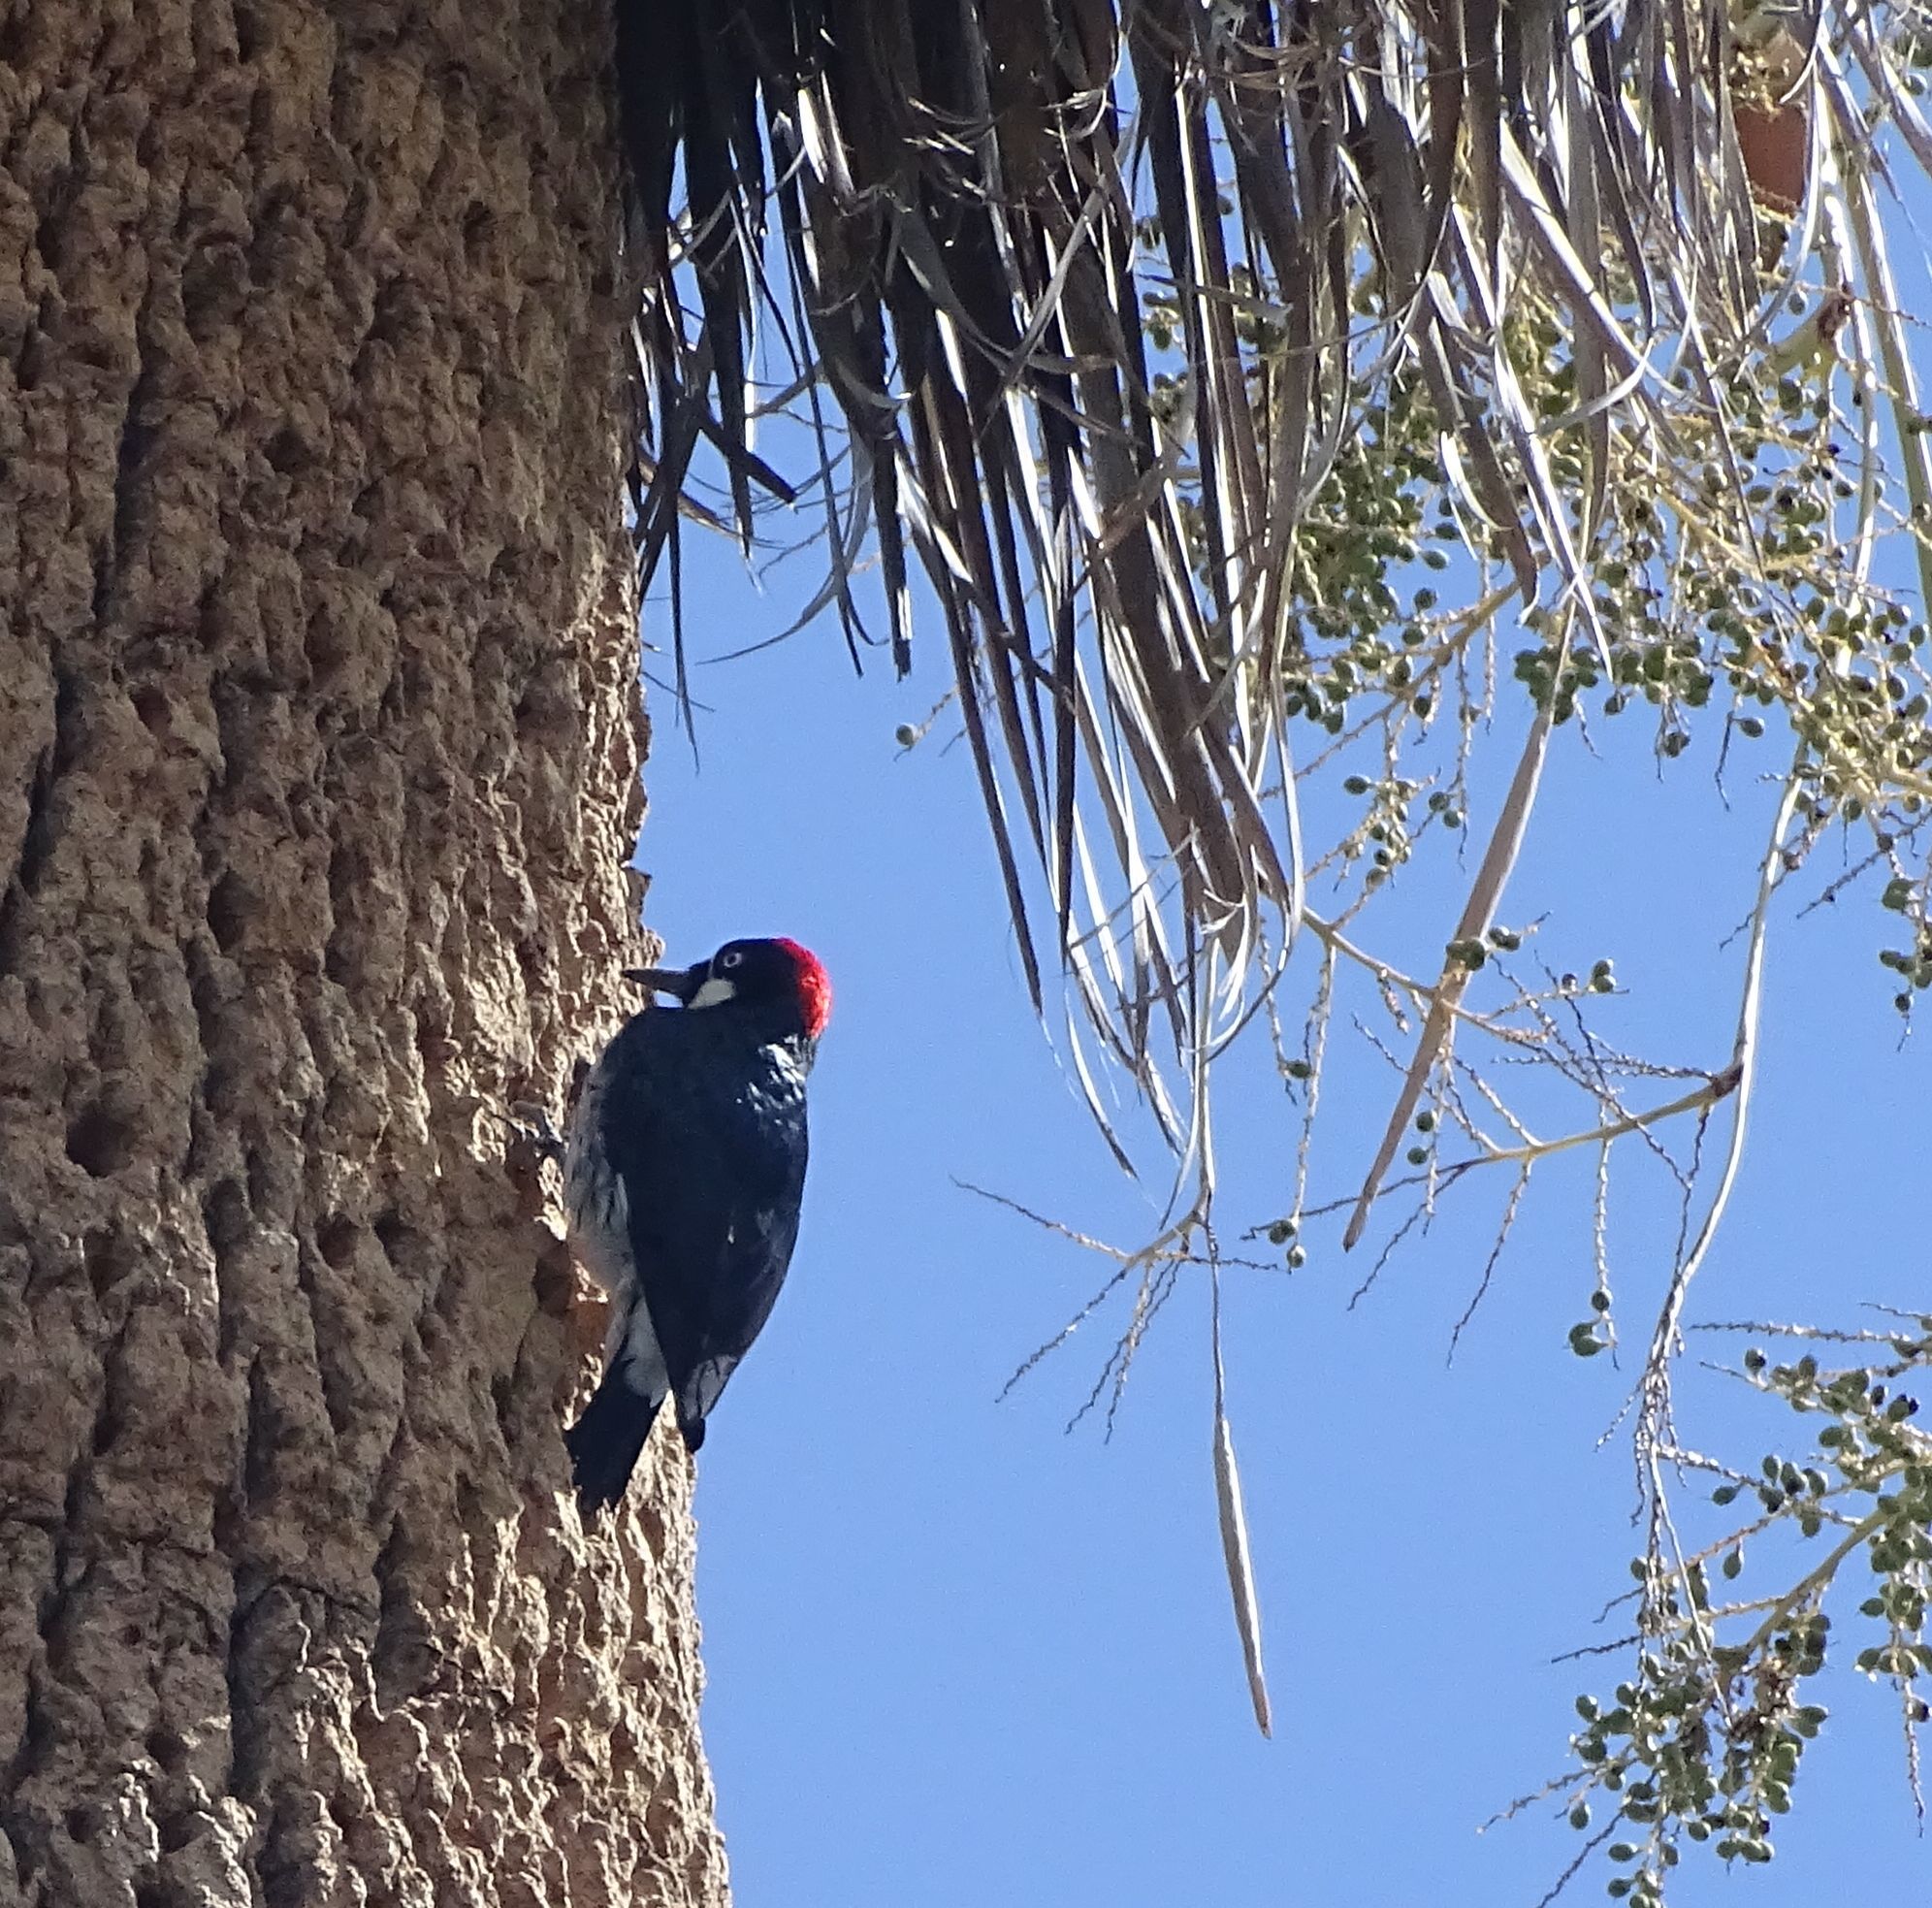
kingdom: Animalia
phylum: Chordata
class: Aves
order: Piciformes
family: Picidae
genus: Melanerpes
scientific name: Melanerpes formicivorus
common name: Acorn woodpecker
